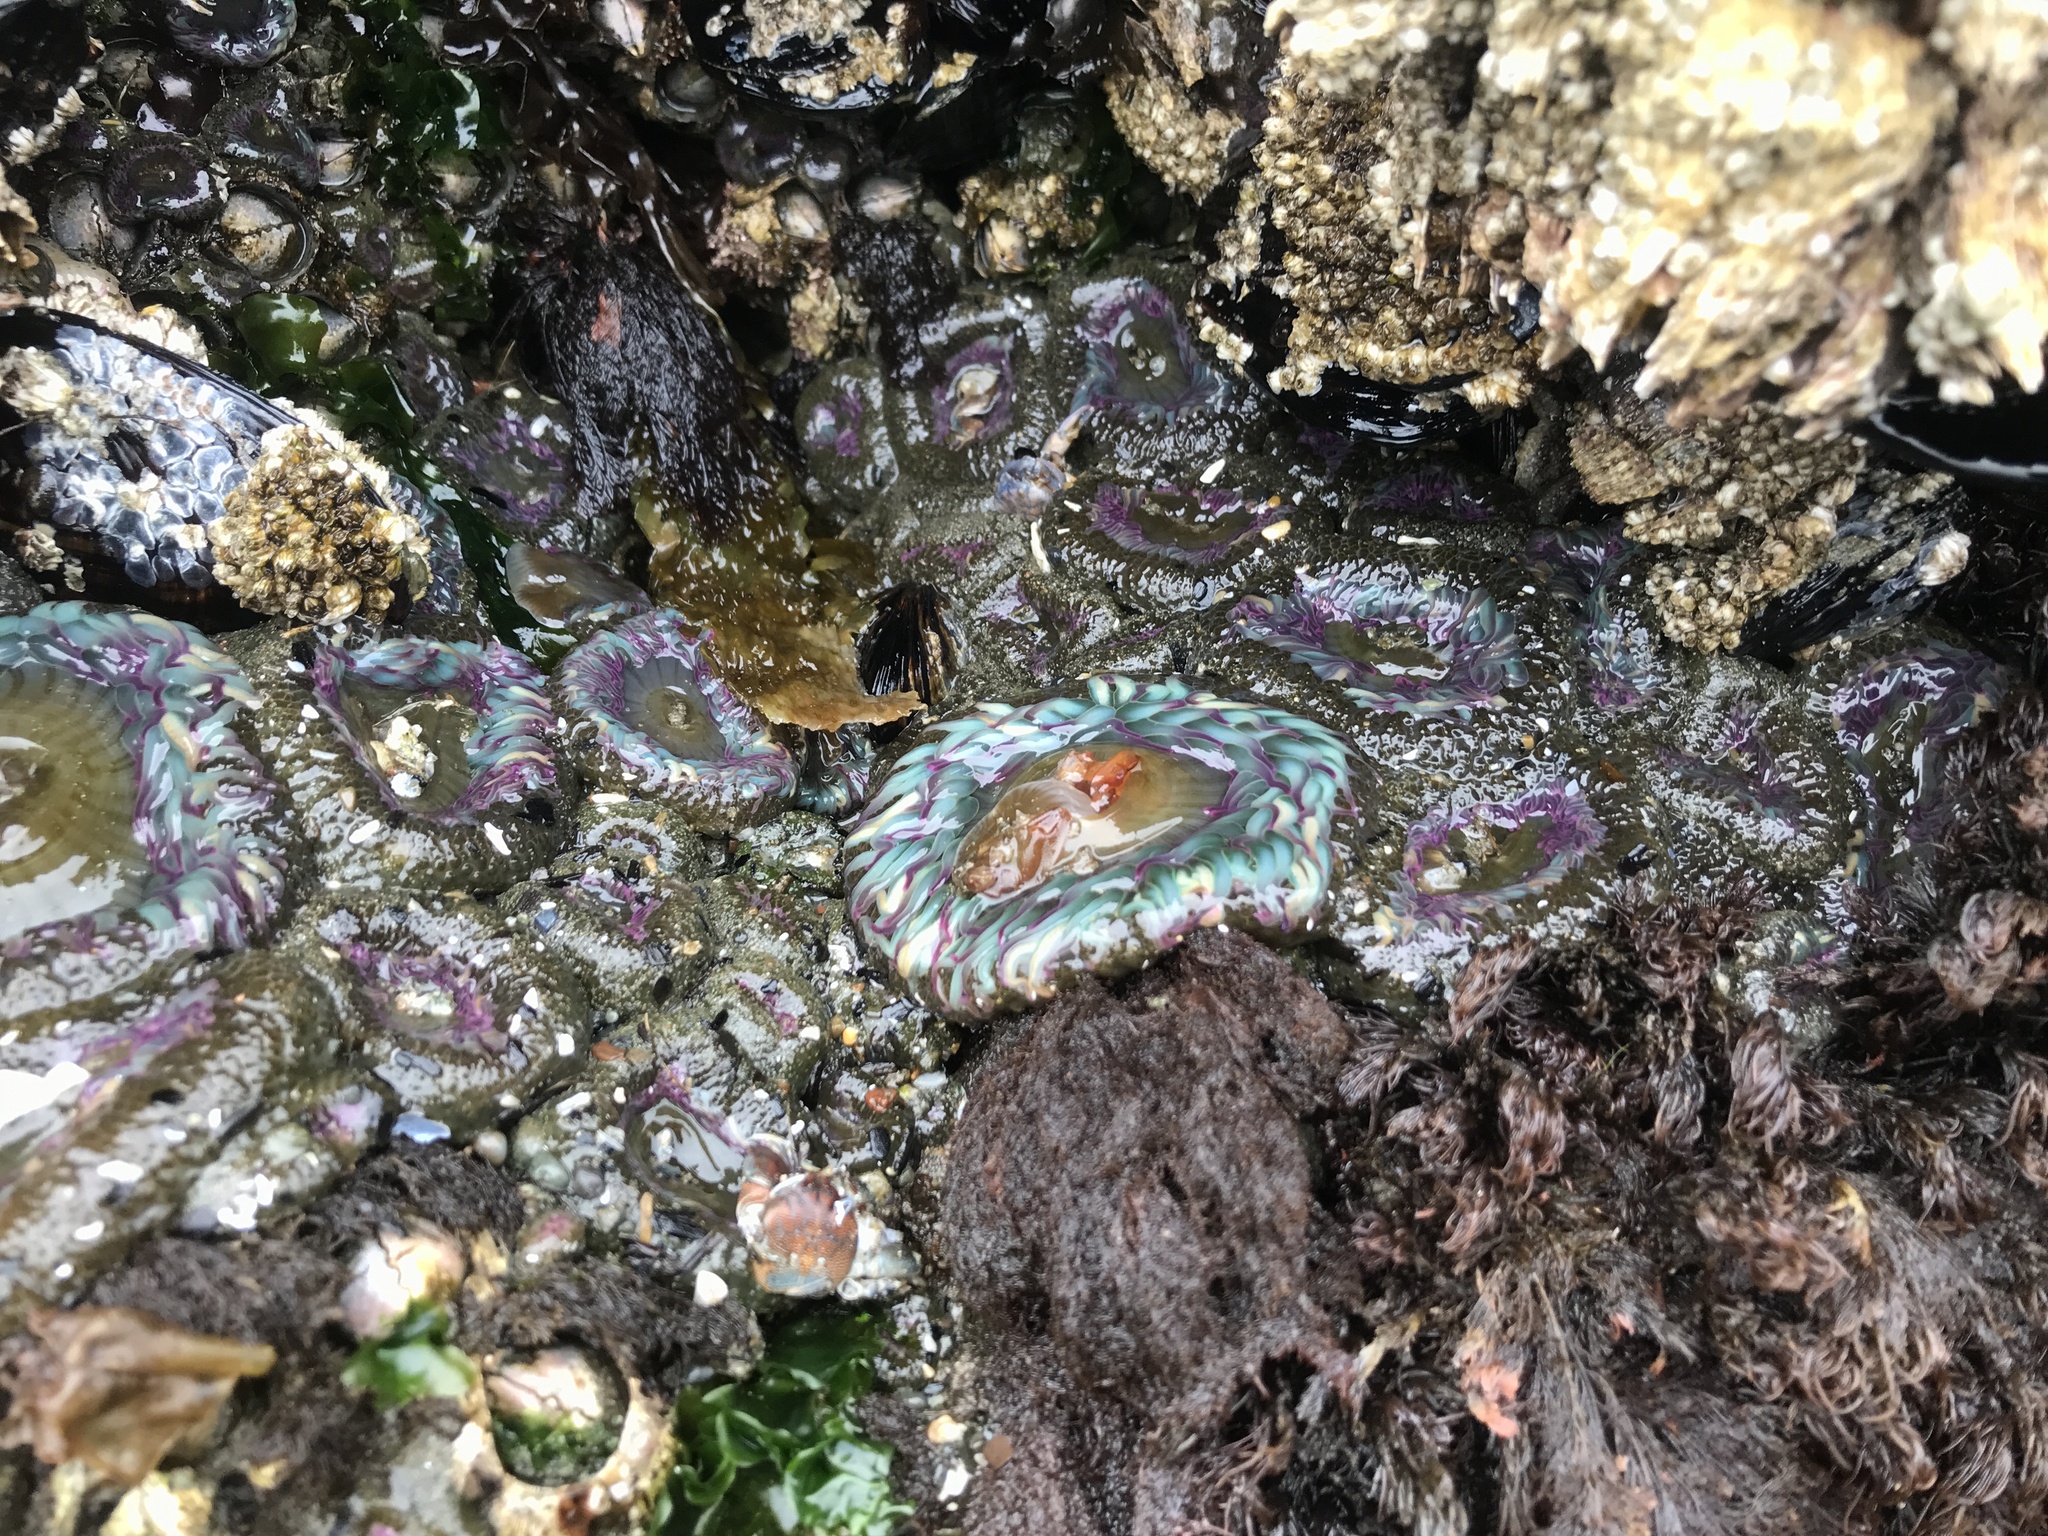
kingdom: Animalia
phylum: Cnidaria
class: Anthozoa
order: Actiniaria
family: Actiniidae
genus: Anthopleura
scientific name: Anthopleura elegantissima
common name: Clonal anemone
